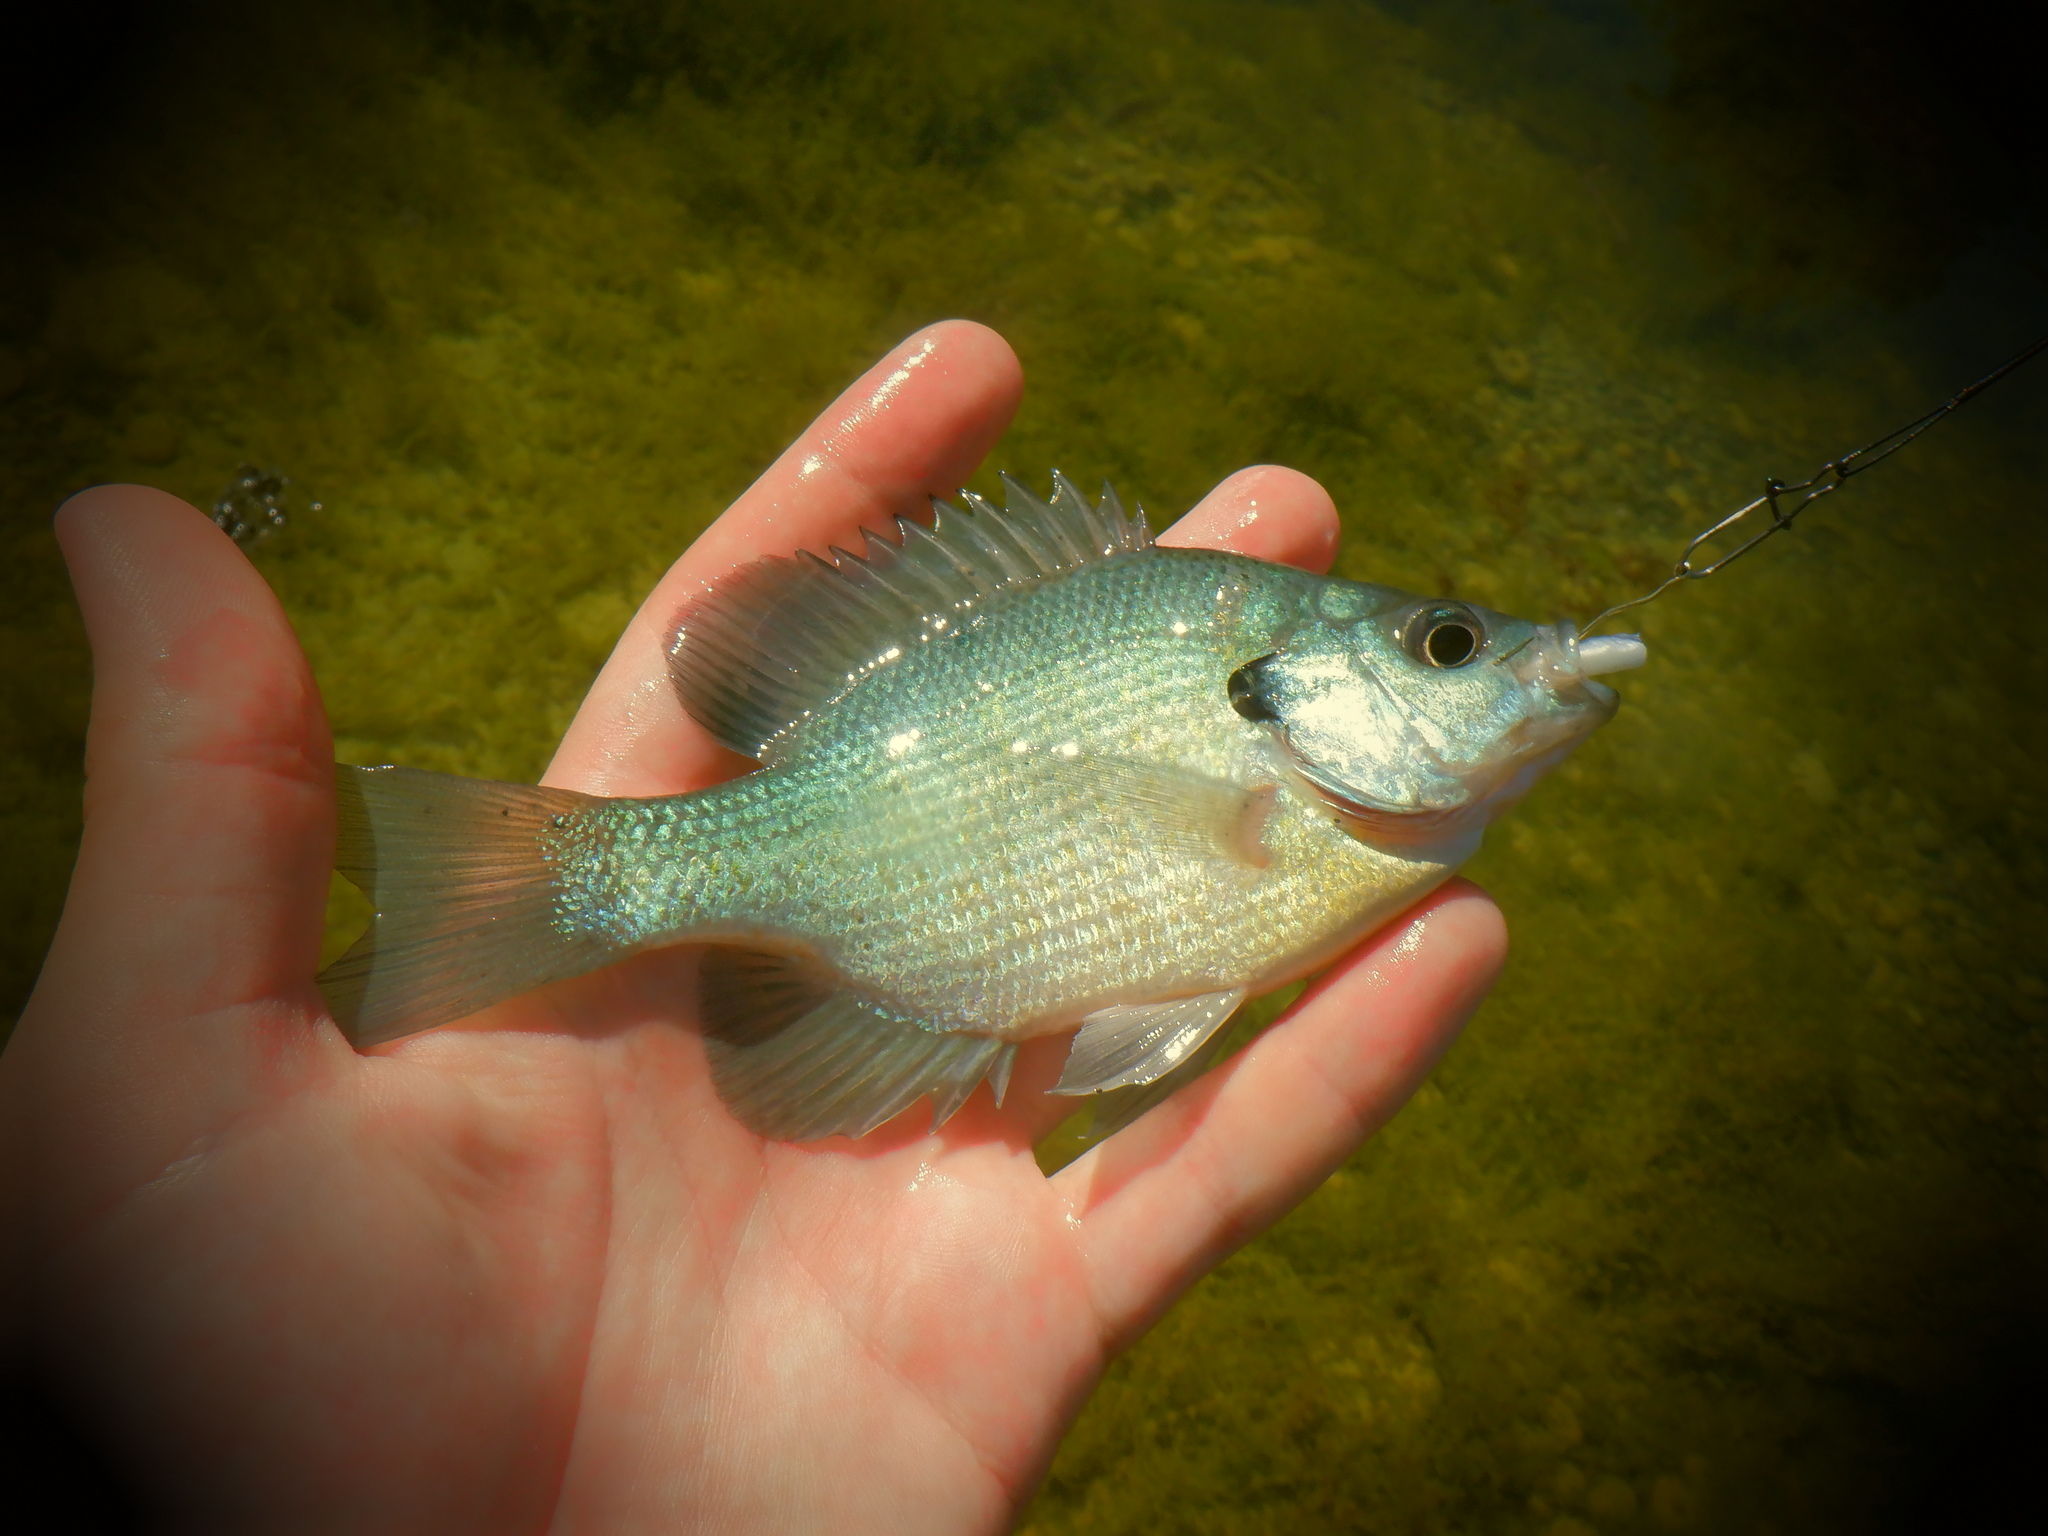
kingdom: Animalia
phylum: Chordata
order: Perciformes
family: Centrarchidae
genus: Lepomis
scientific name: Lepomis macrochirus
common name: Bluegill
